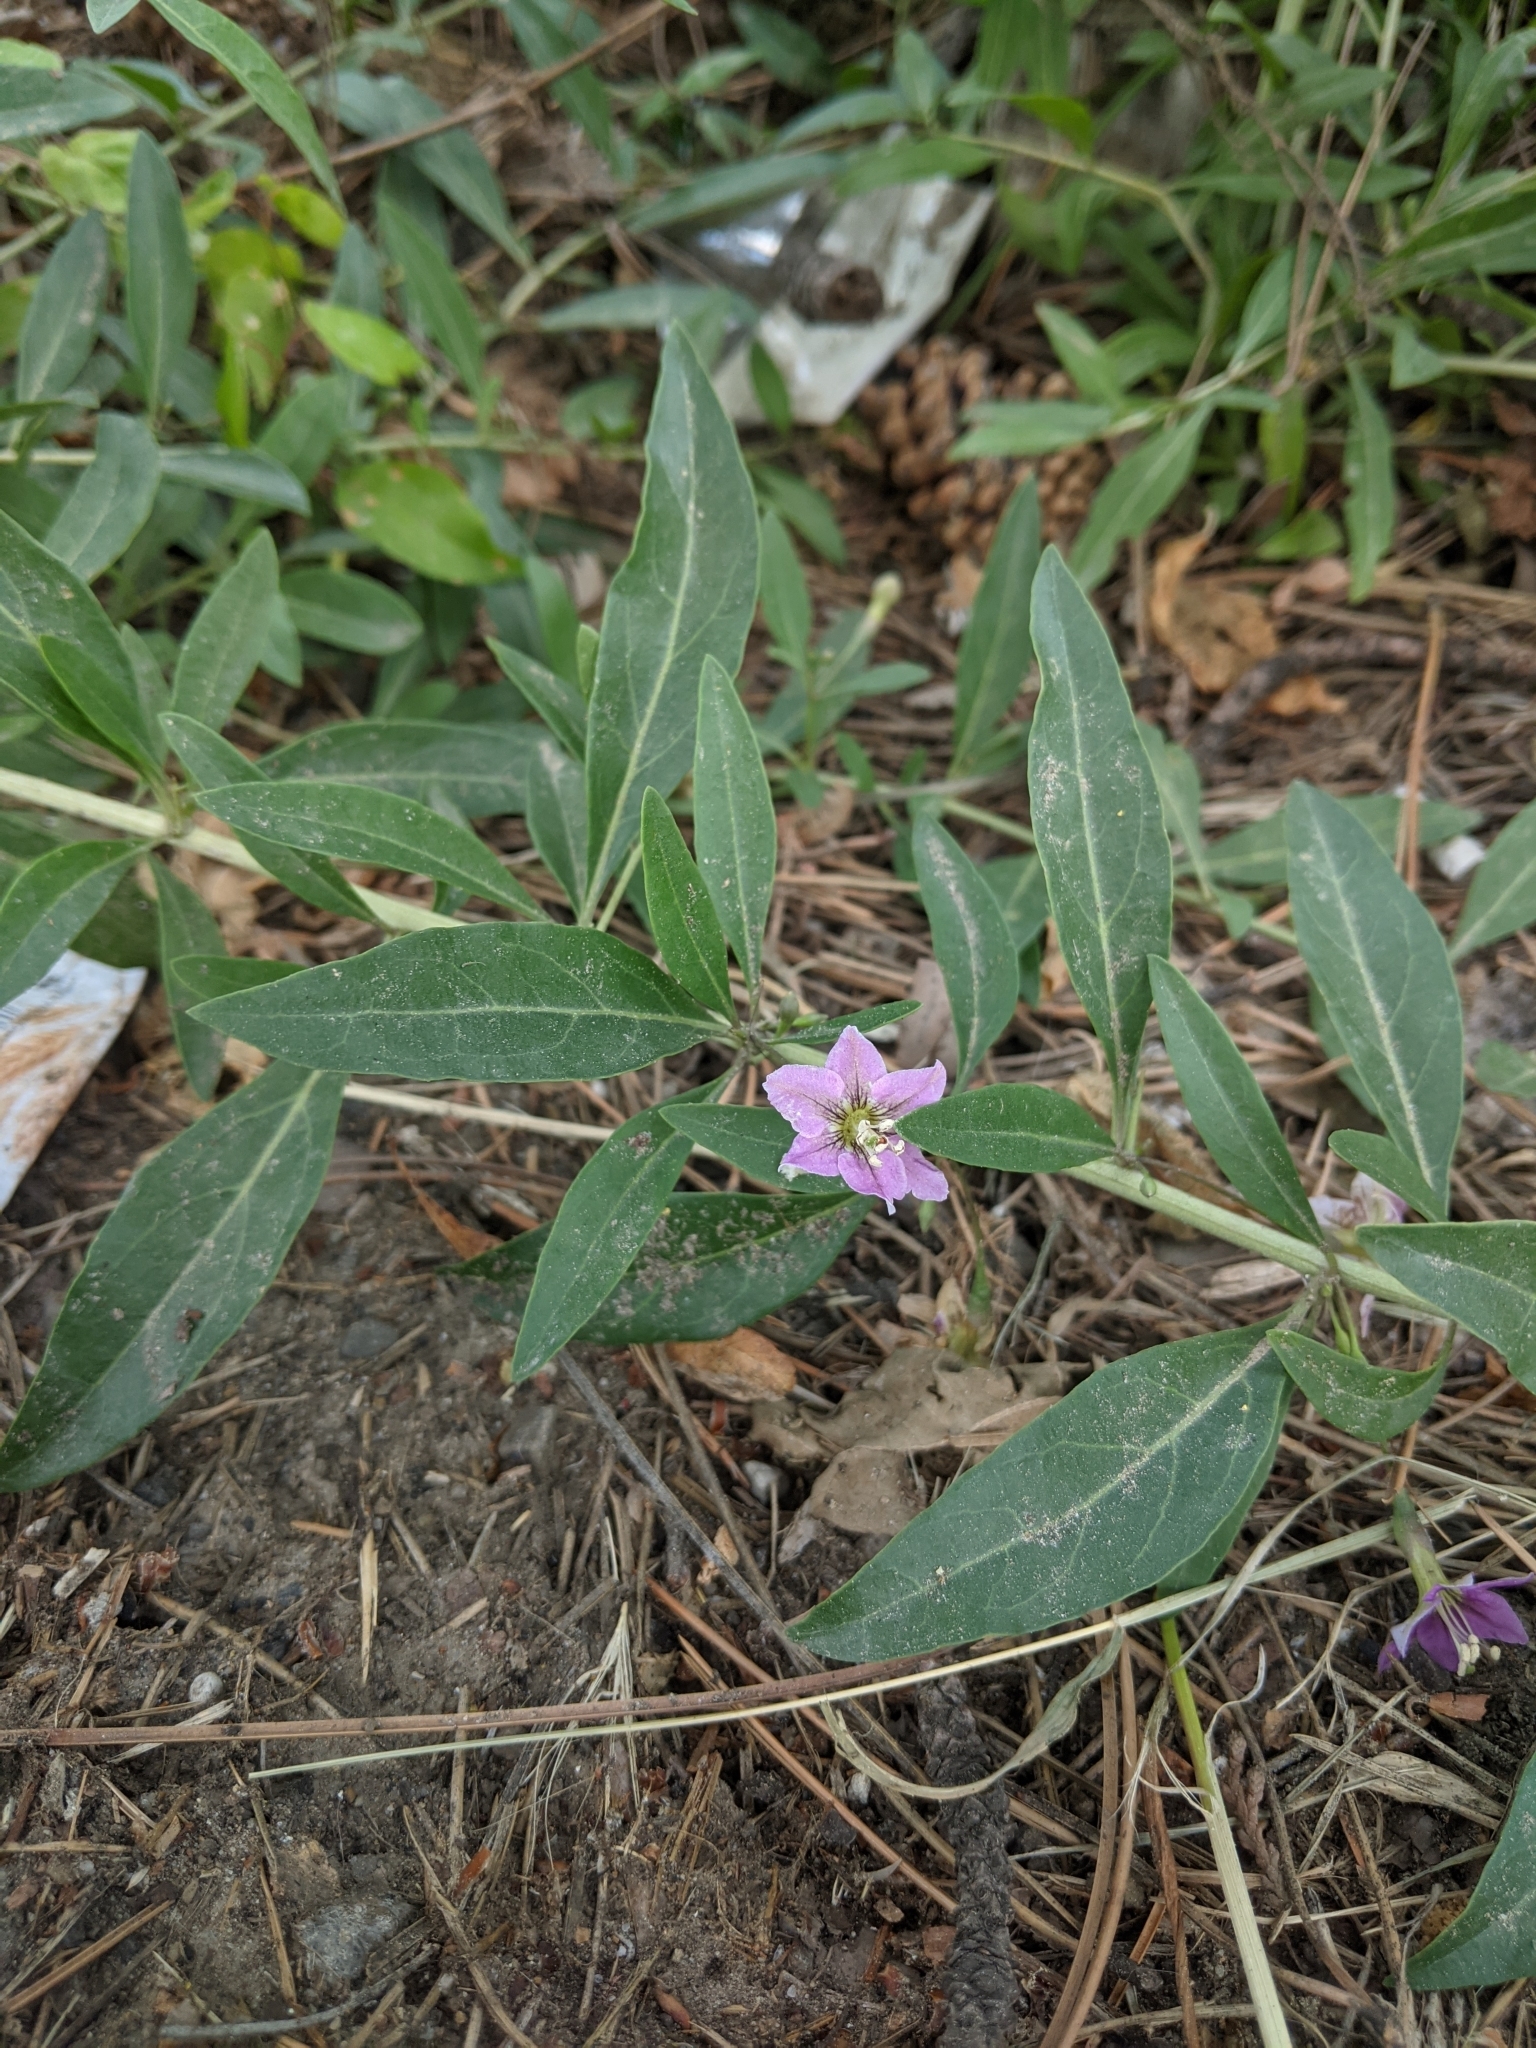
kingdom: Plantae
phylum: Tracheophyta
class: Magnoliopsida
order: Solanales
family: Solanaceae
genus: Lycium
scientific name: Lycium barbarum
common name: Duke of argyll's teaplant
